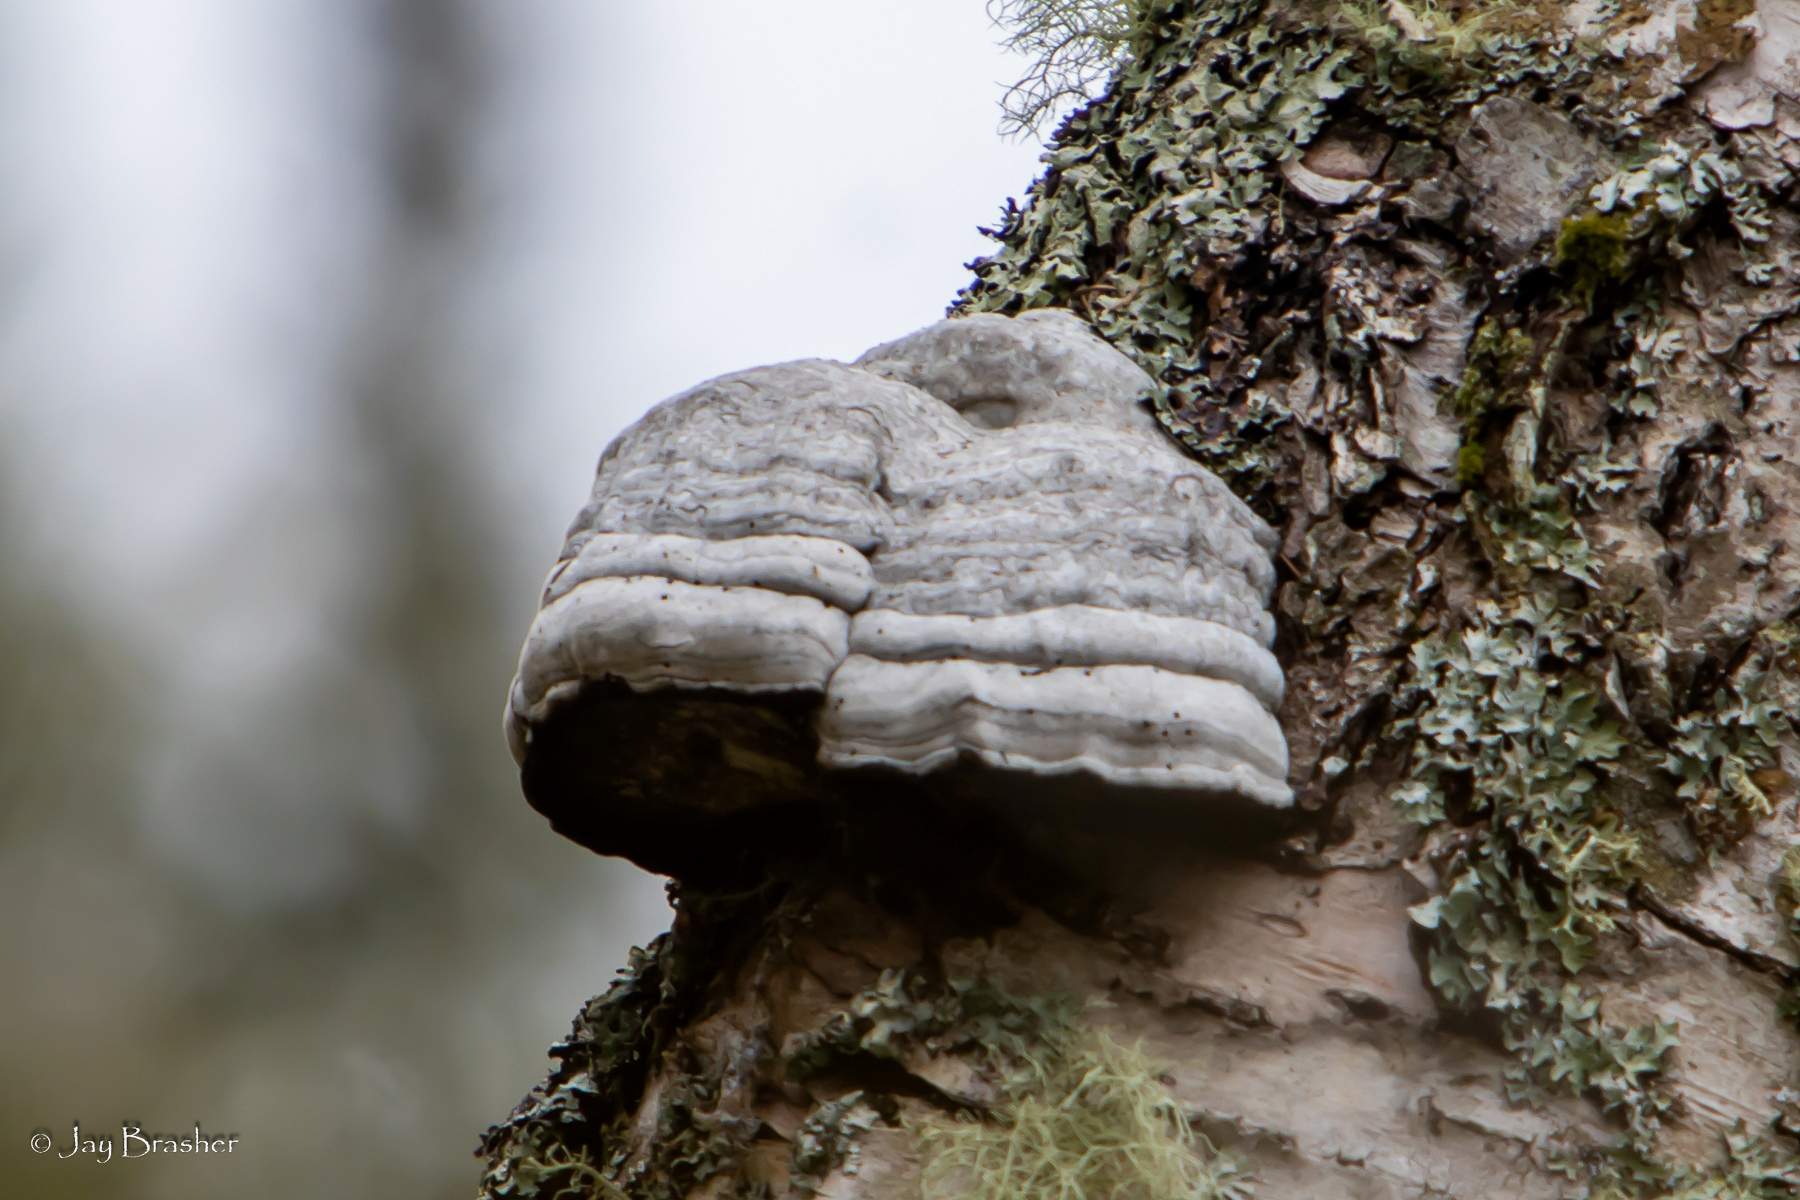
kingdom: Fungi
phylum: Basidiomycota
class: Agaricomycetes
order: Polyporales
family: Polyporaceae
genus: Fomes
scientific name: Fomes fomentarius
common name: Hoof fungus
